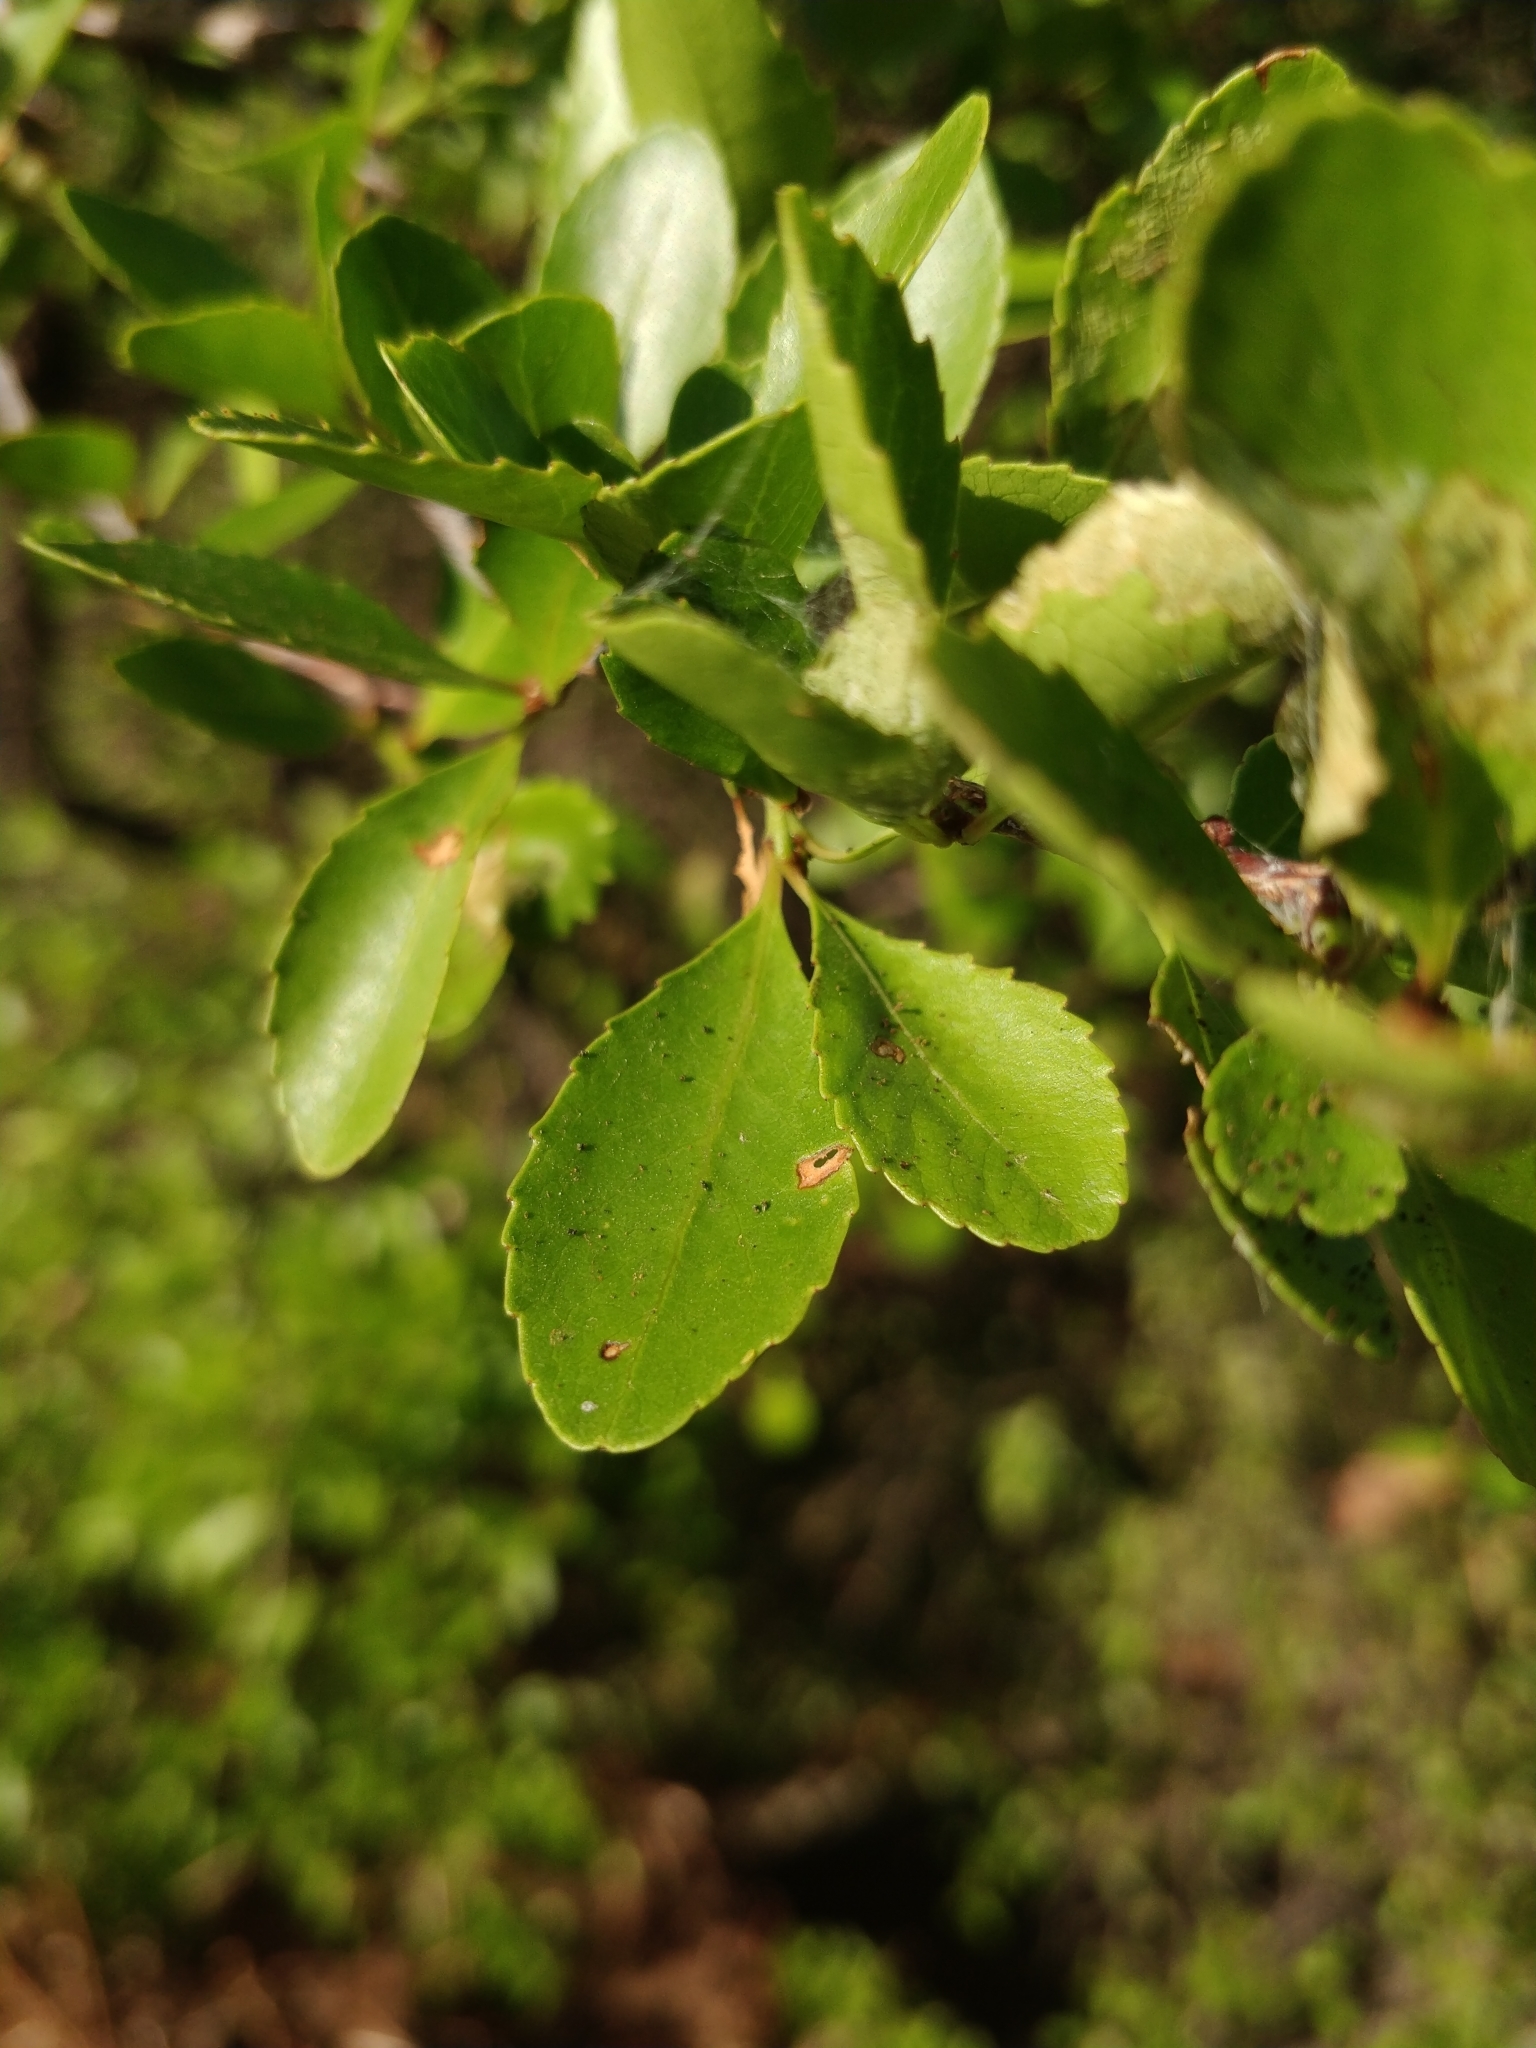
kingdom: Plantae
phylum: Tracheophyta
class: Magnoliopsida
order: Celastrales
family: Celastraceae
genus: Gymnosporia
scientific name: Gymnosporia dryandri
